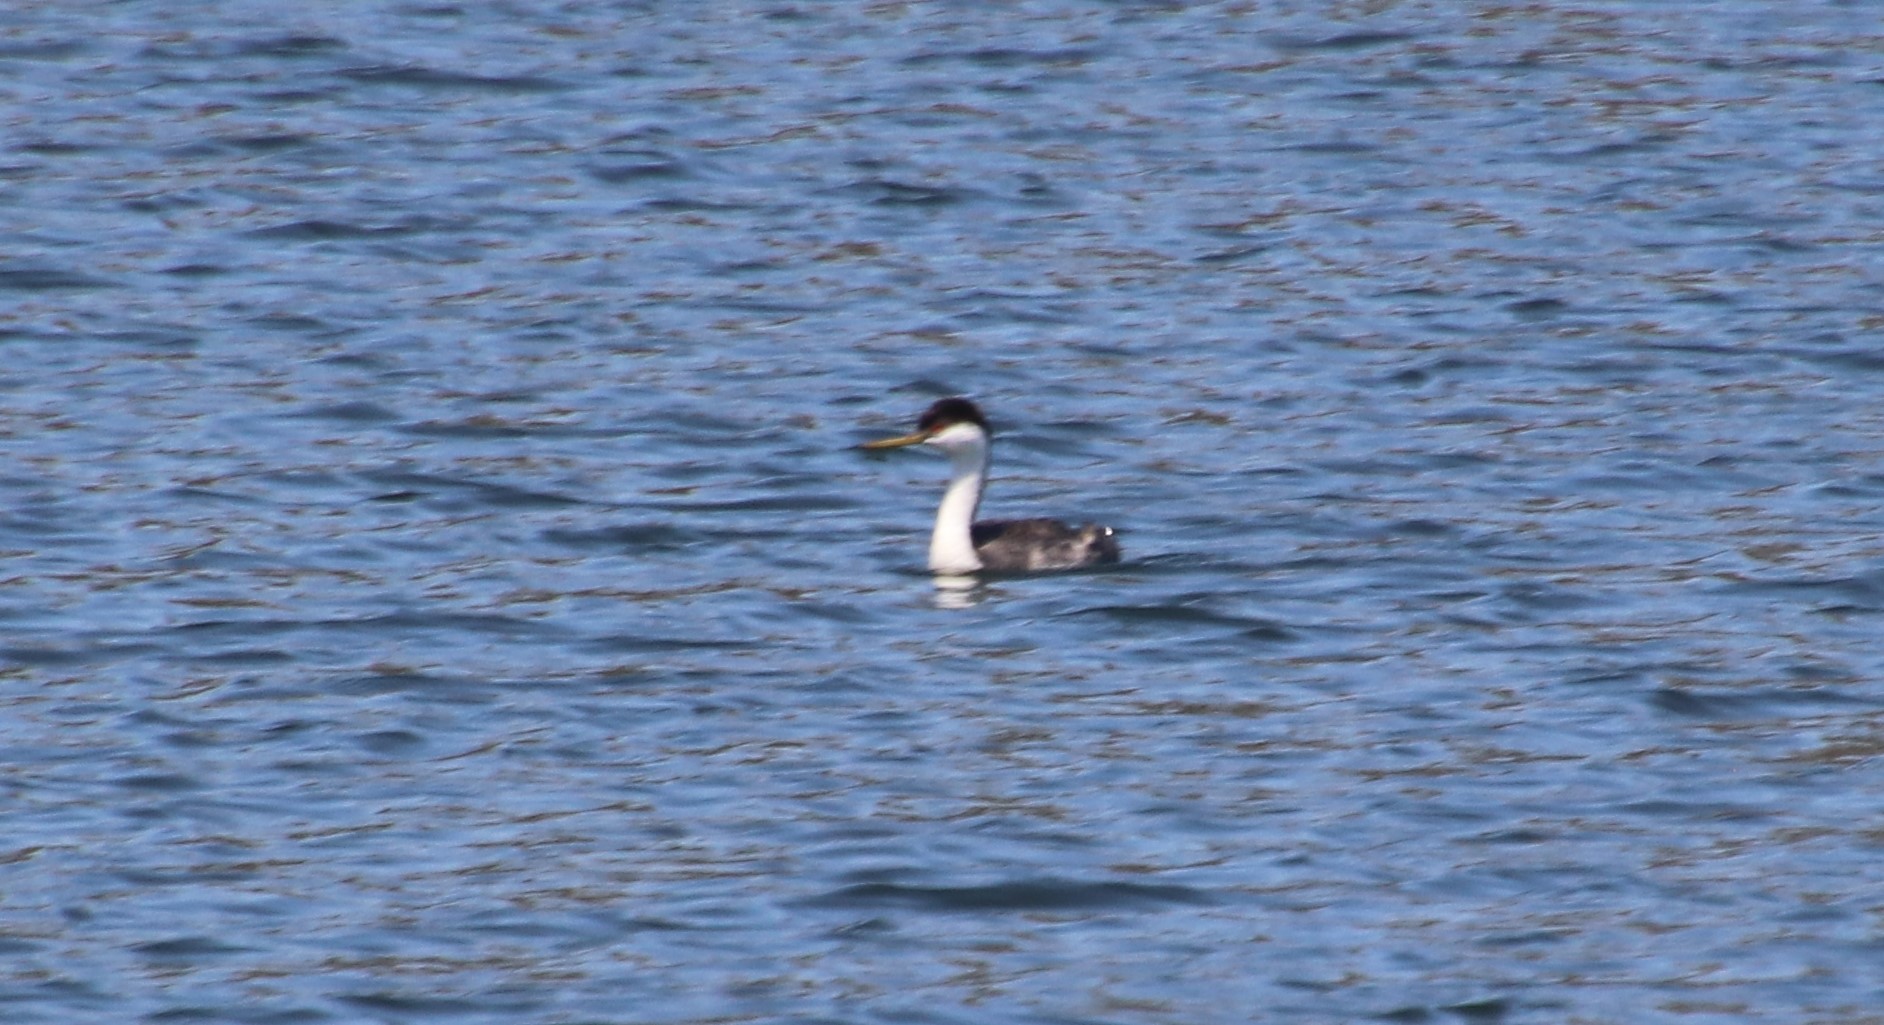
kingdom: Animalia
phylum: Chordata
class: Aves
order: Podicipediformes
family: Podicipedidae
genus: Aechmophorus
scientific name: Aechmophorus occidentalis
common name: Western grebe
